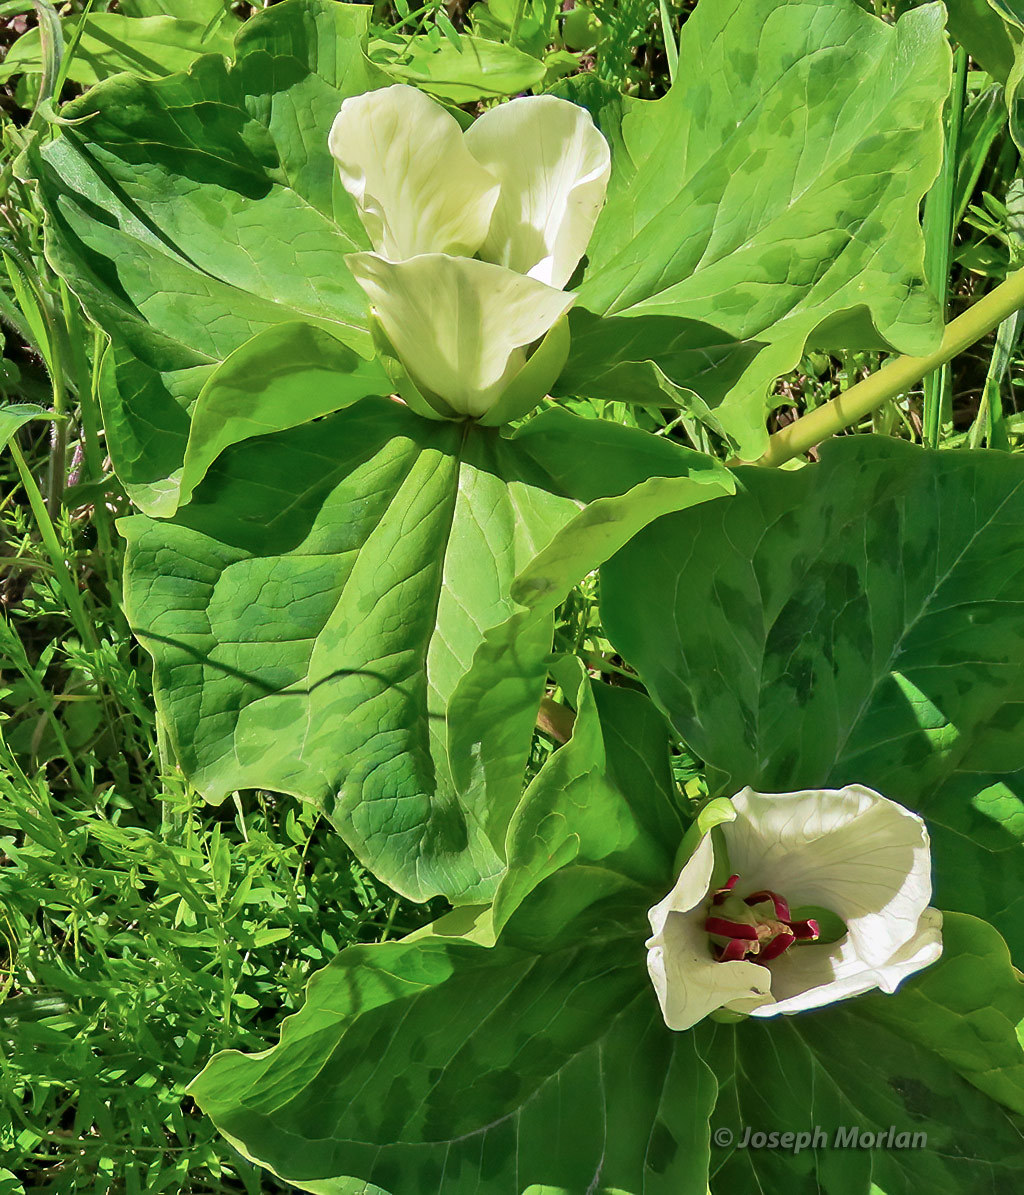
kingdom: Plantae
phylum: Tracheophyta
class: Liliopsida
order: Liliales
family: Melanthiaceae
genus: Trillium
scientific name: Trillium chloropetalum
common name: Giant trillium
